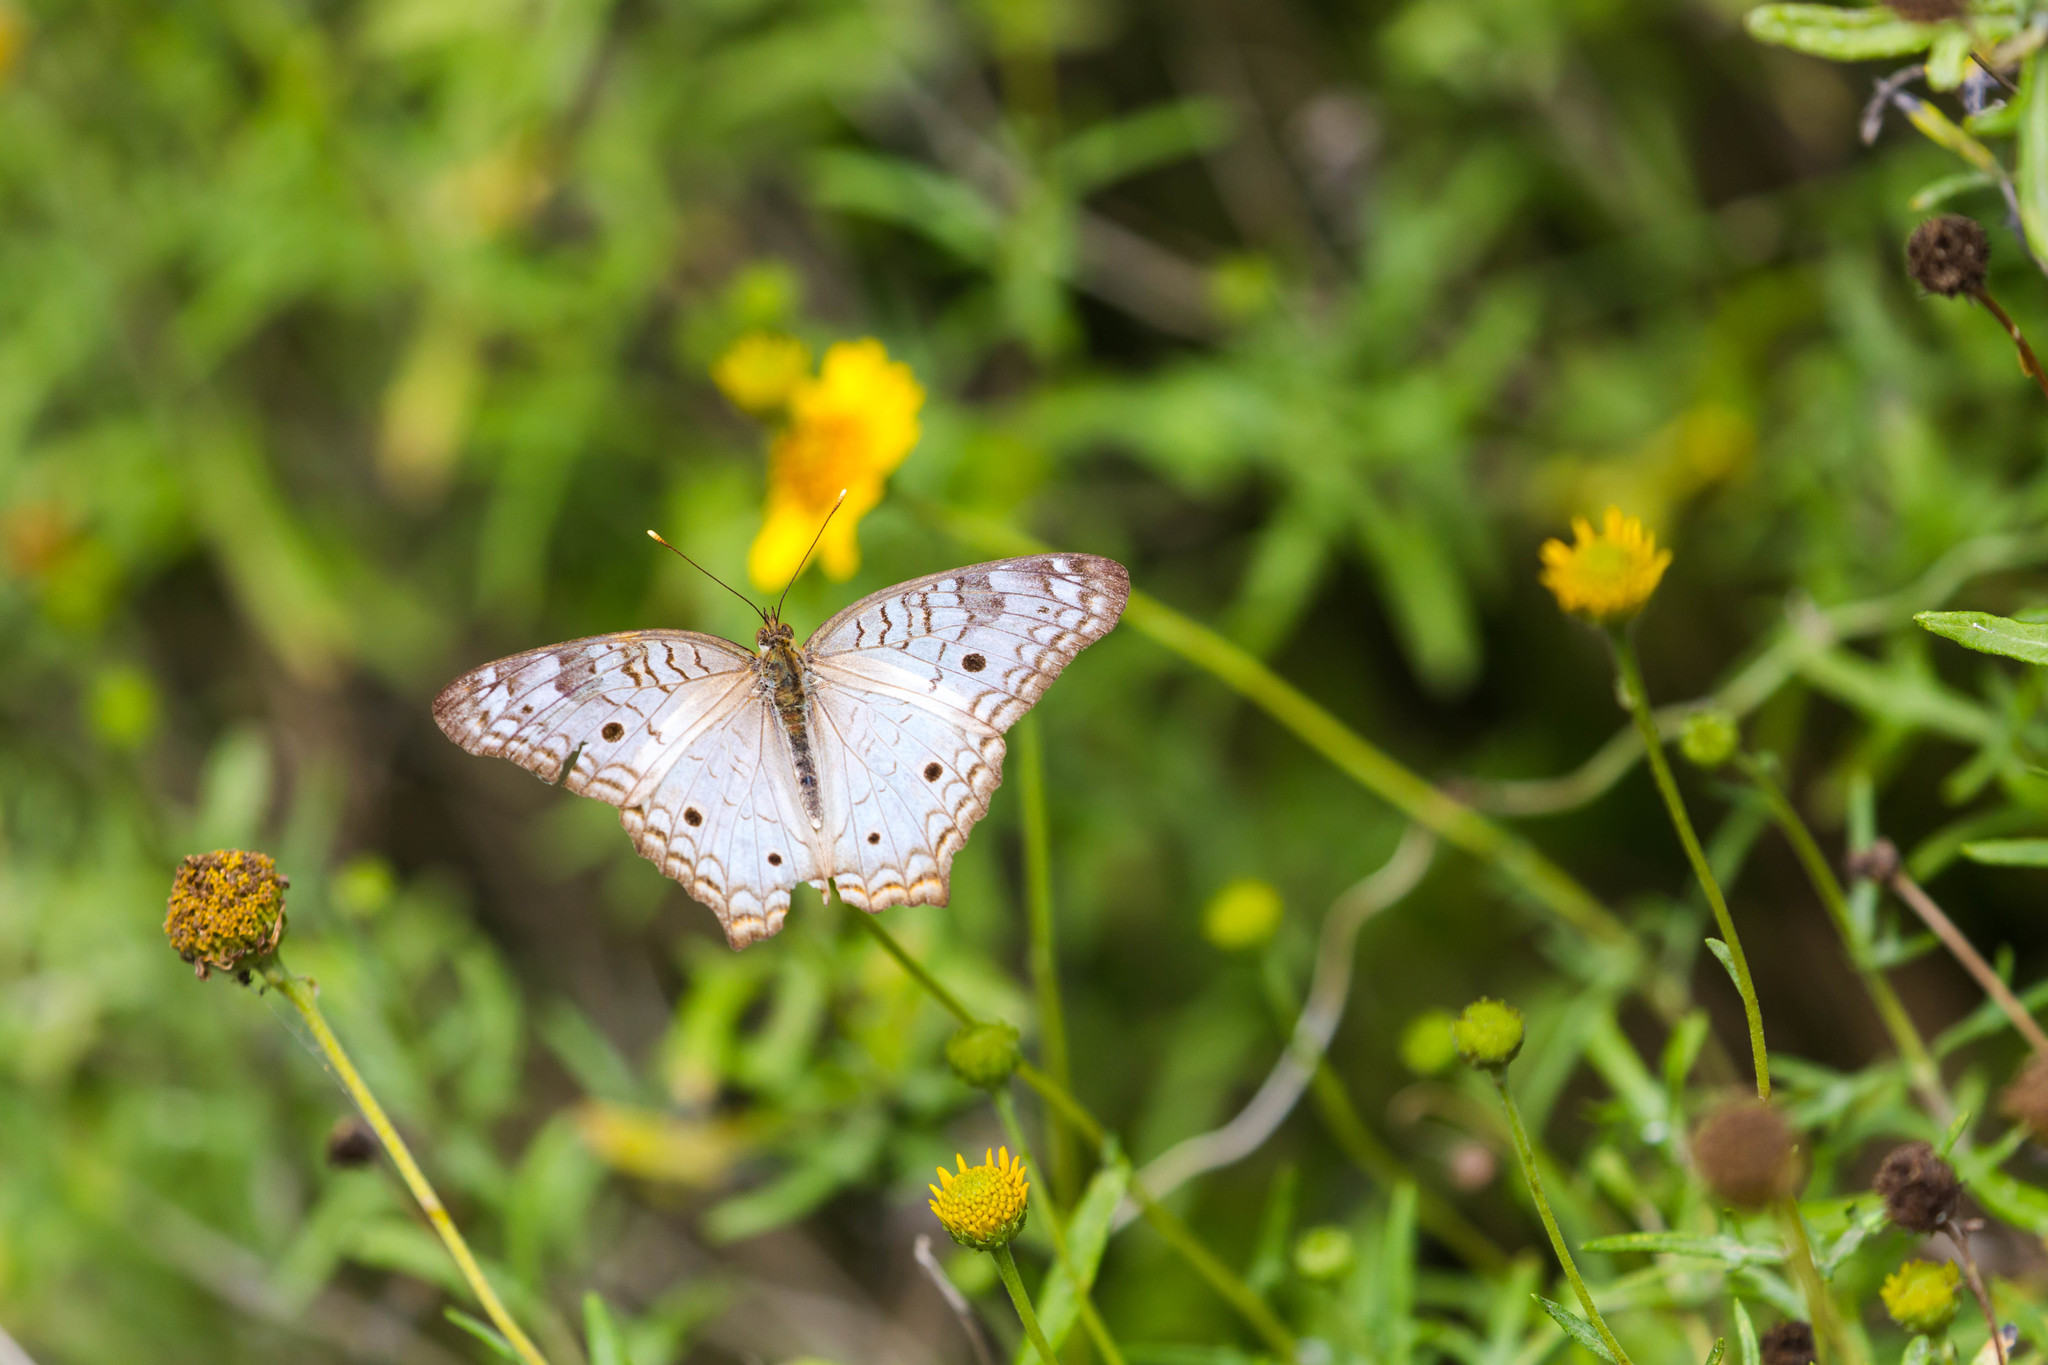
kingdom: Animalia
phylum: Arthropoda
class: Insecta
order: Lepidoptera
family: Nymphalidae
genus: Anartia
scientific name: Anartia jatrophae
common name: White peacock
